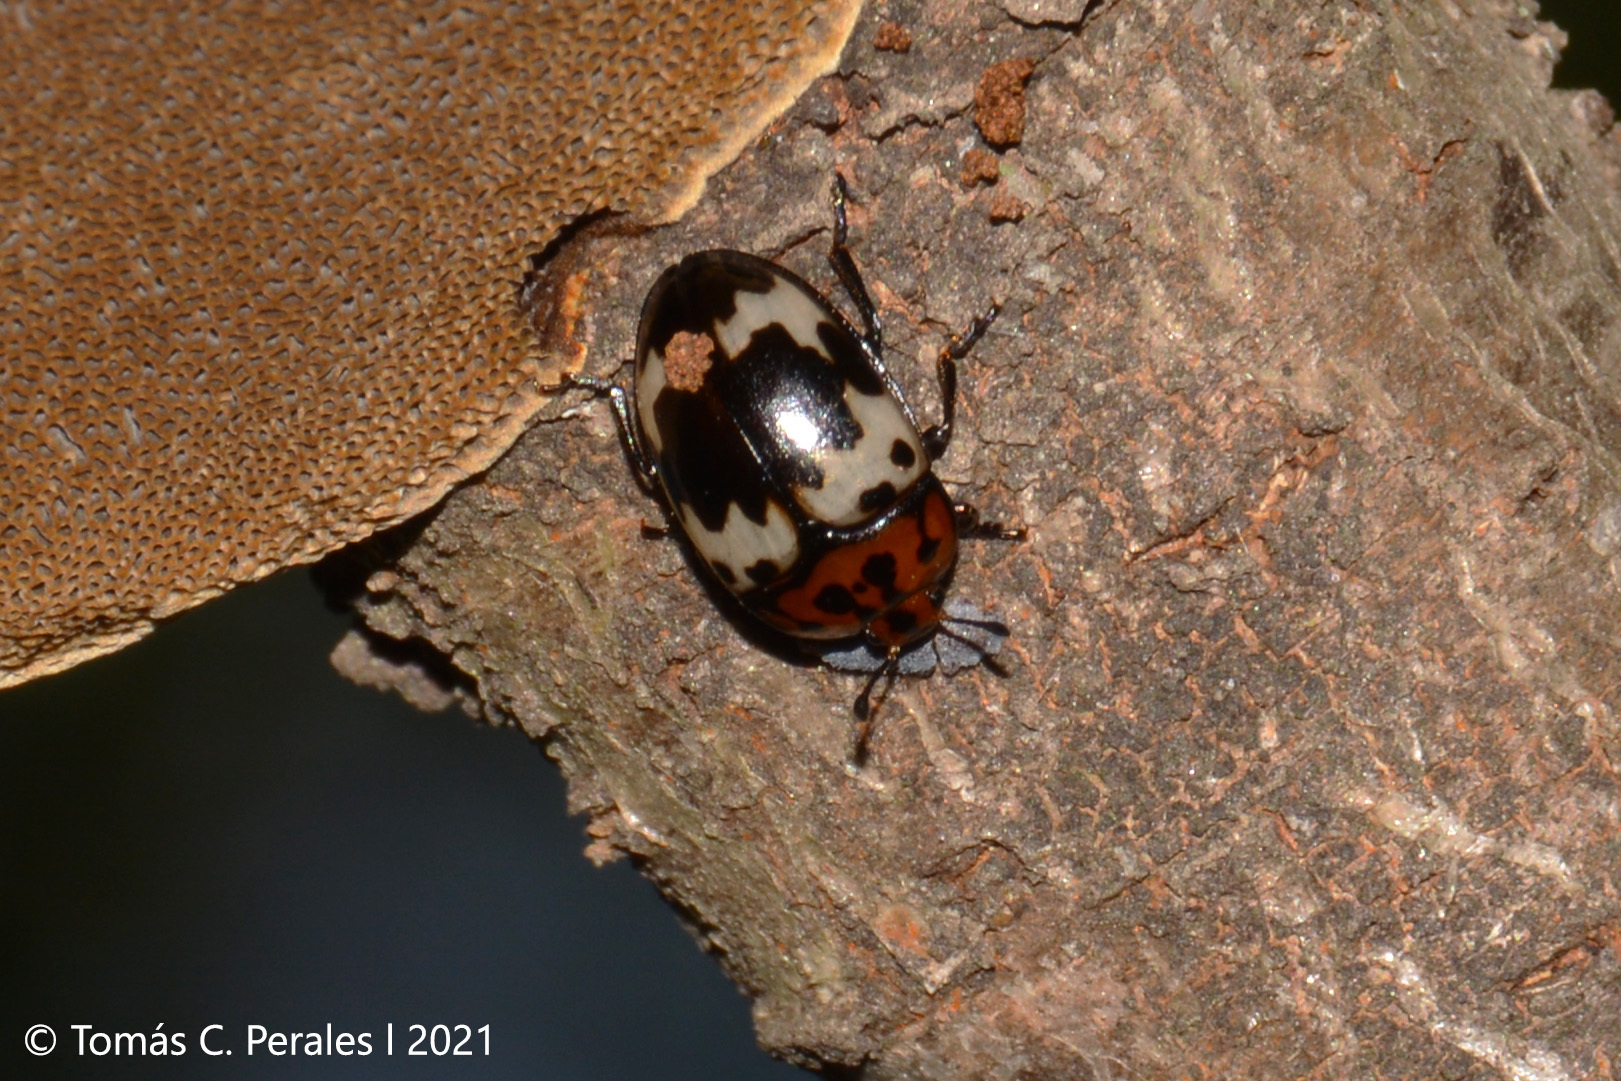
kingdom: Animalia
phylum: Arthropoda
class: Insecta
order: Coleoptera
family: Erotylidae
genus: Iphiclus
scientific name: Iphiclus
